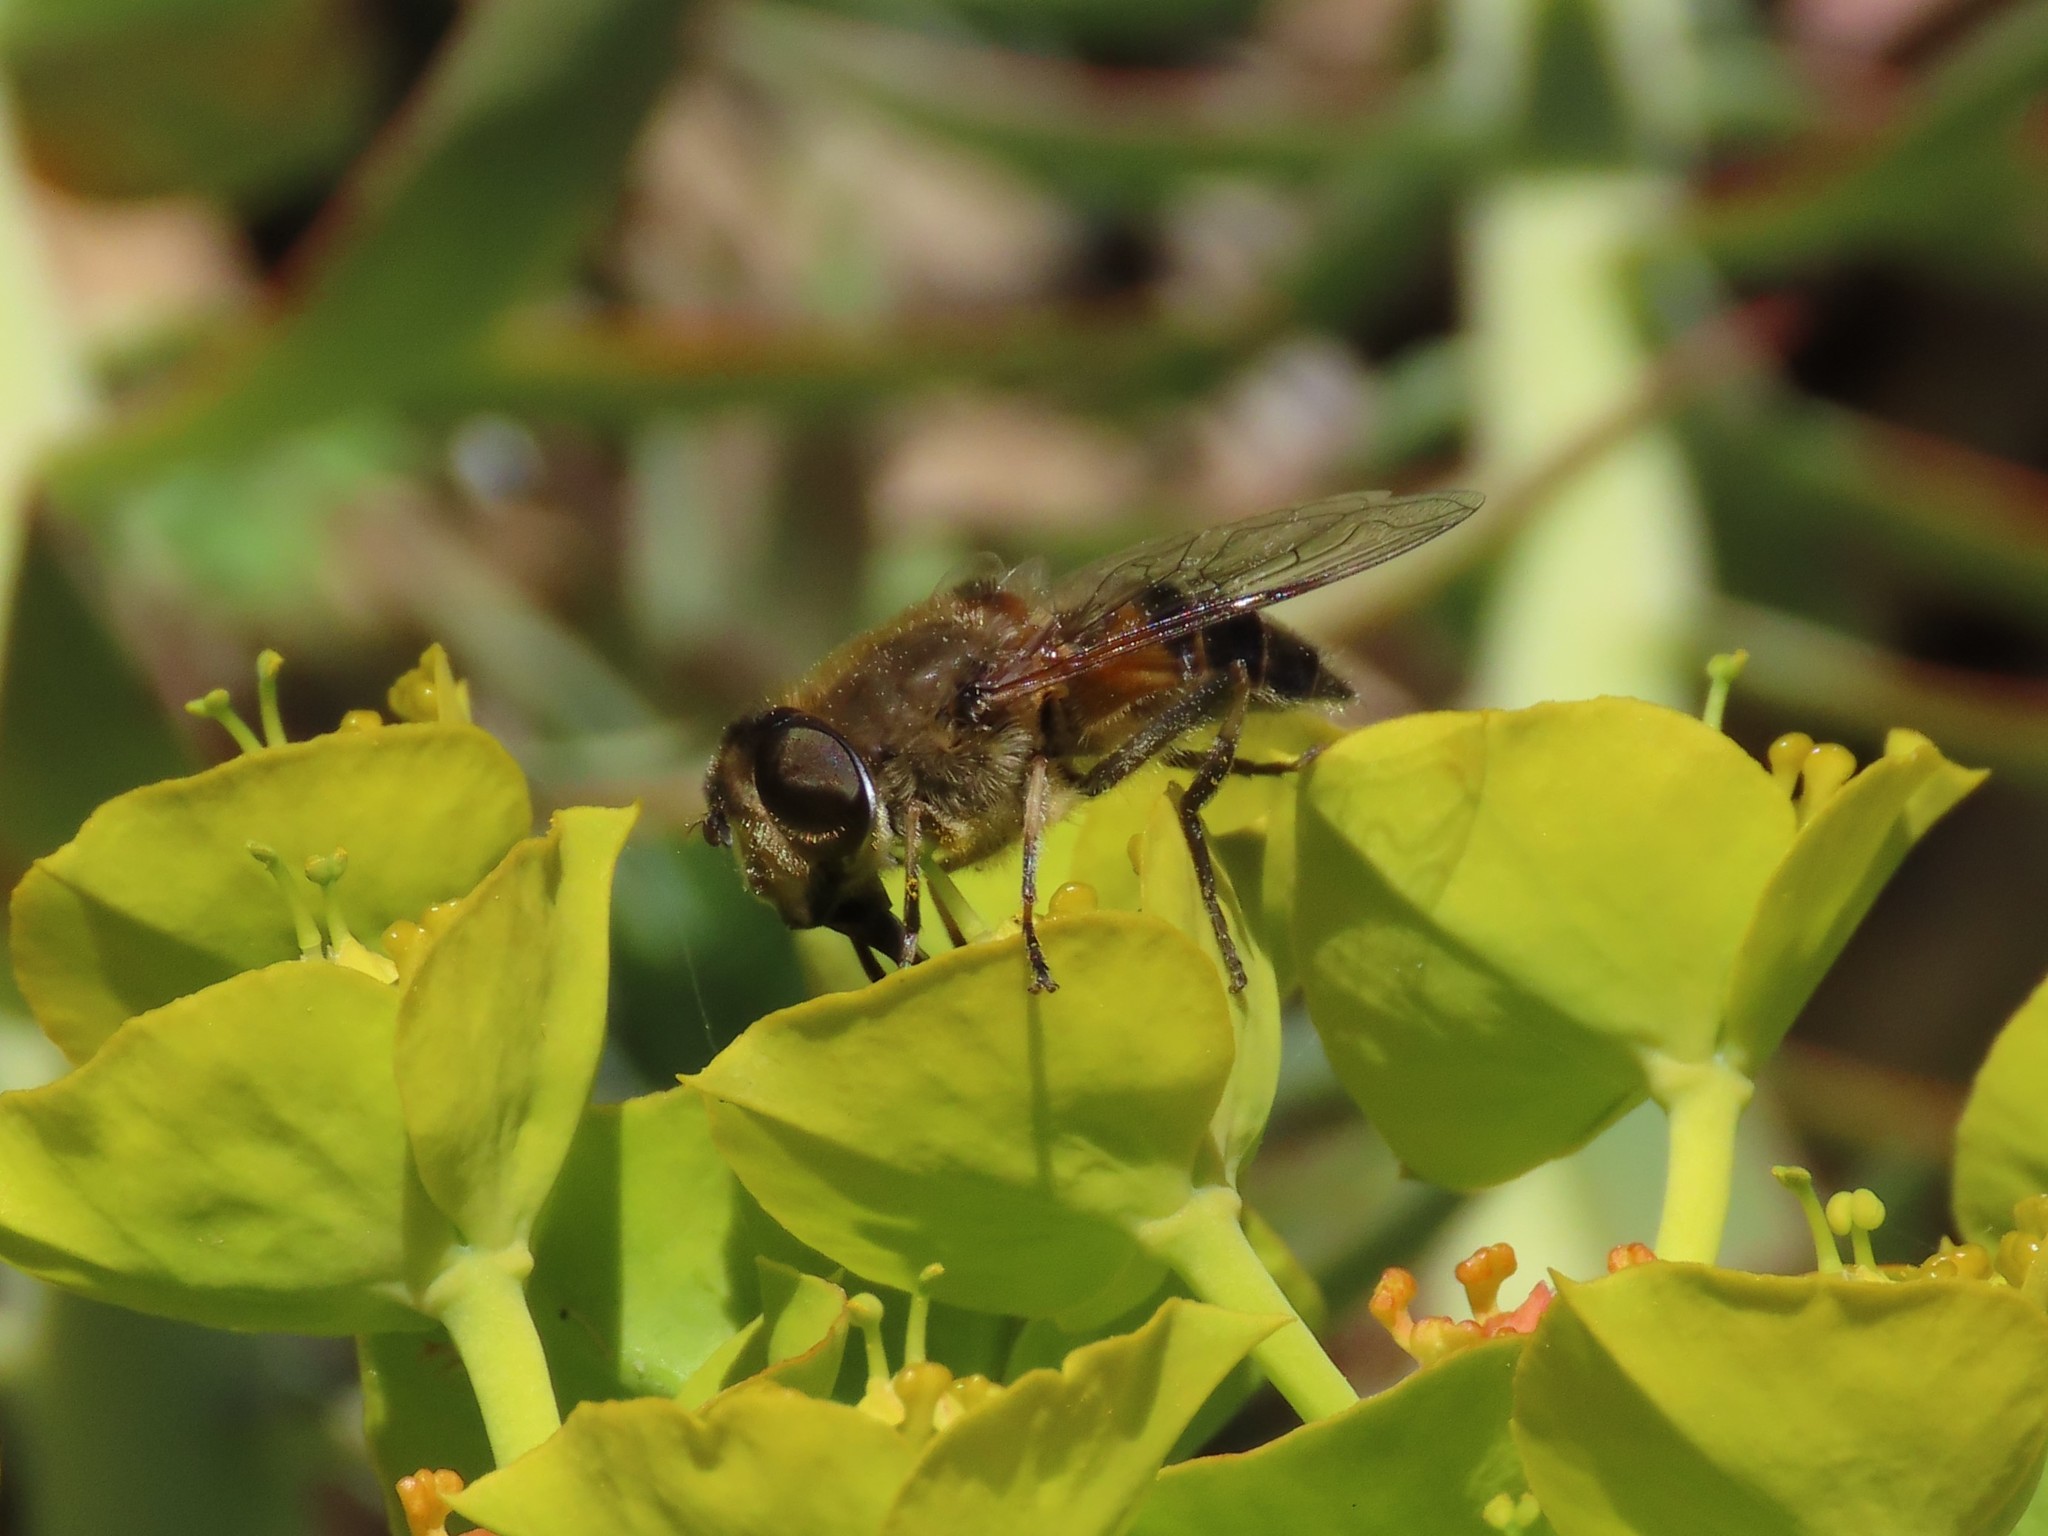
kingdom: Animalia
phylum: Arthropoda
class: Insecta
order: Diptera
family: Syrphidae
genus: Eristalis
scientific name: Eristalis pertinax
